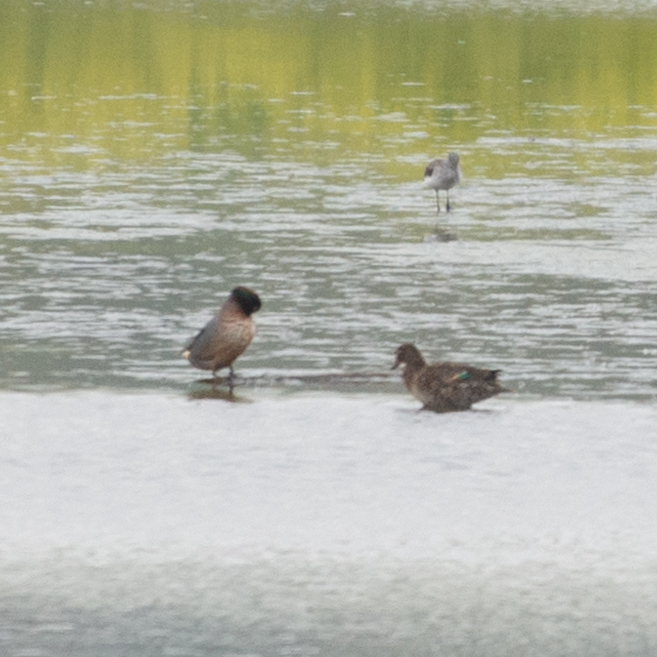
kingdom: Animalia
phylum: Chordata
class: Aves
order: Anseriformes
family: Anatidae
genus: Anas
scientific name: Anas crecca
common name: Eurasian teal
